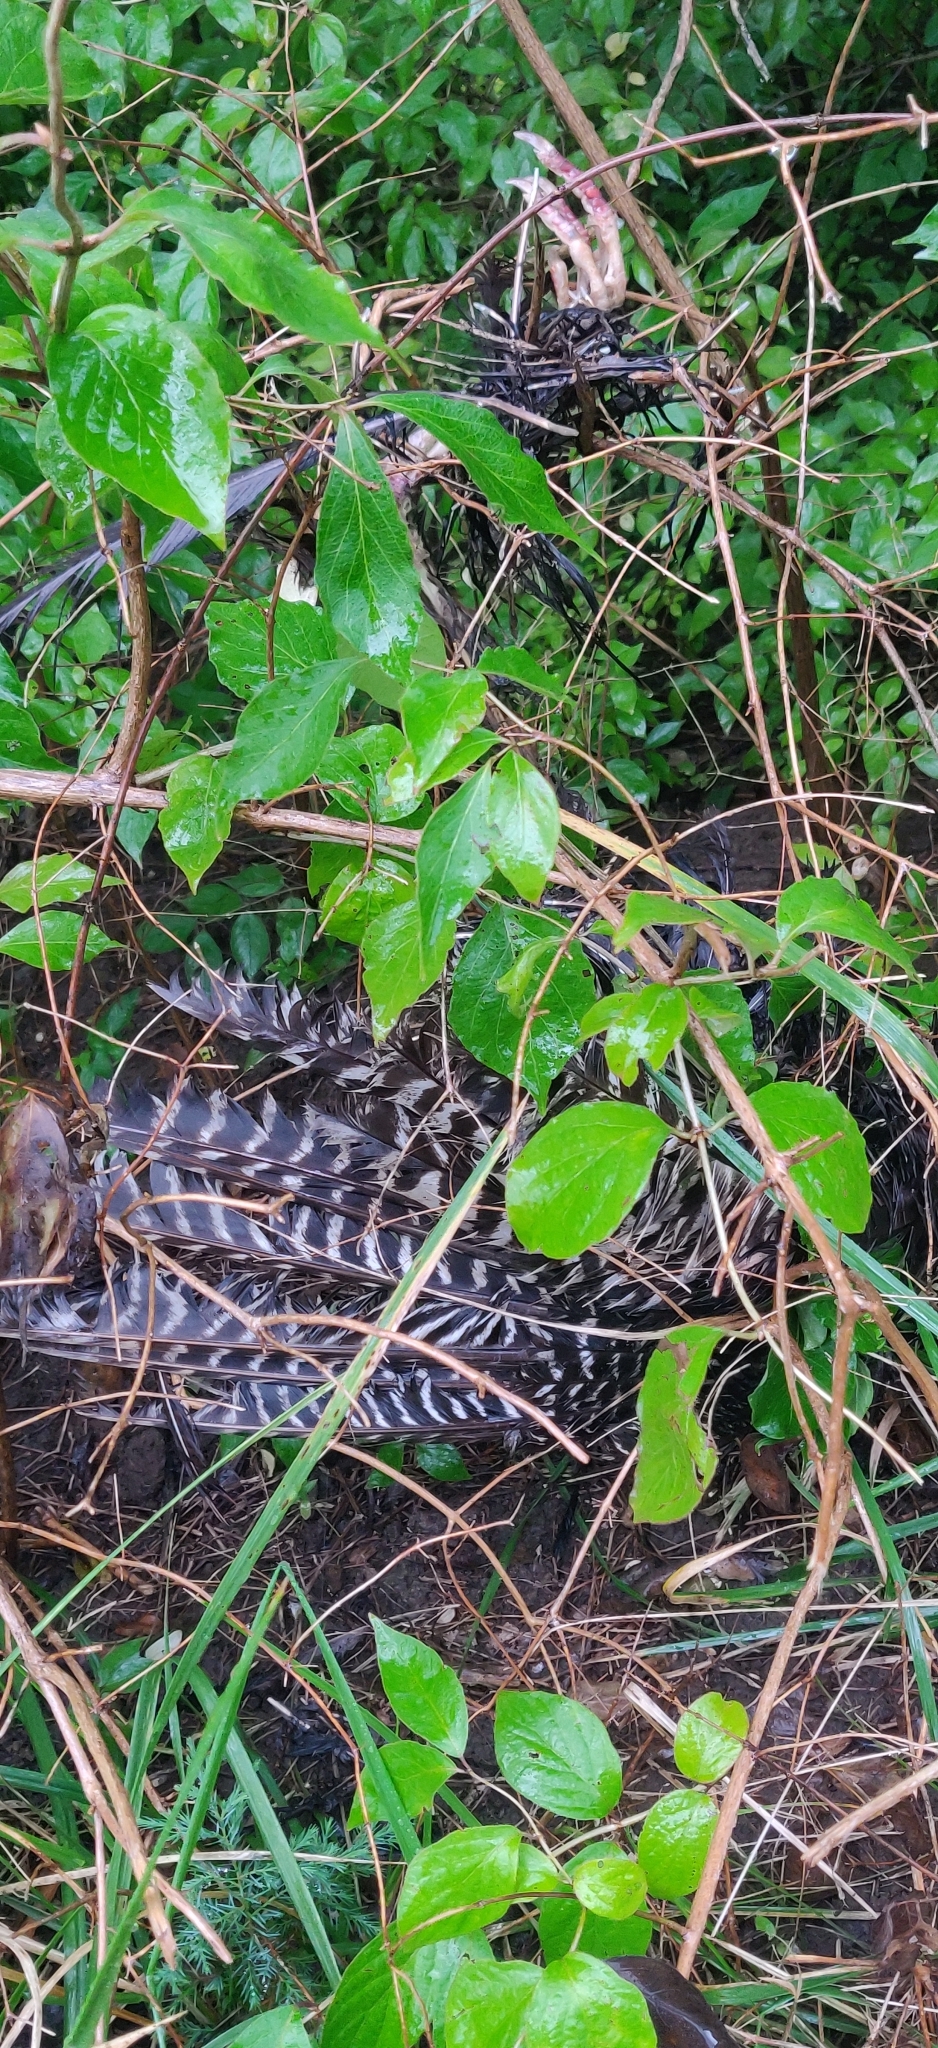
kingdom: Animalia
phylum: Chordata
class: Aves
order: Galliformes
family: Phasianidae
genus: Meleagris
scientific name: Meleagris gallopavo
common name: Wild turkey
